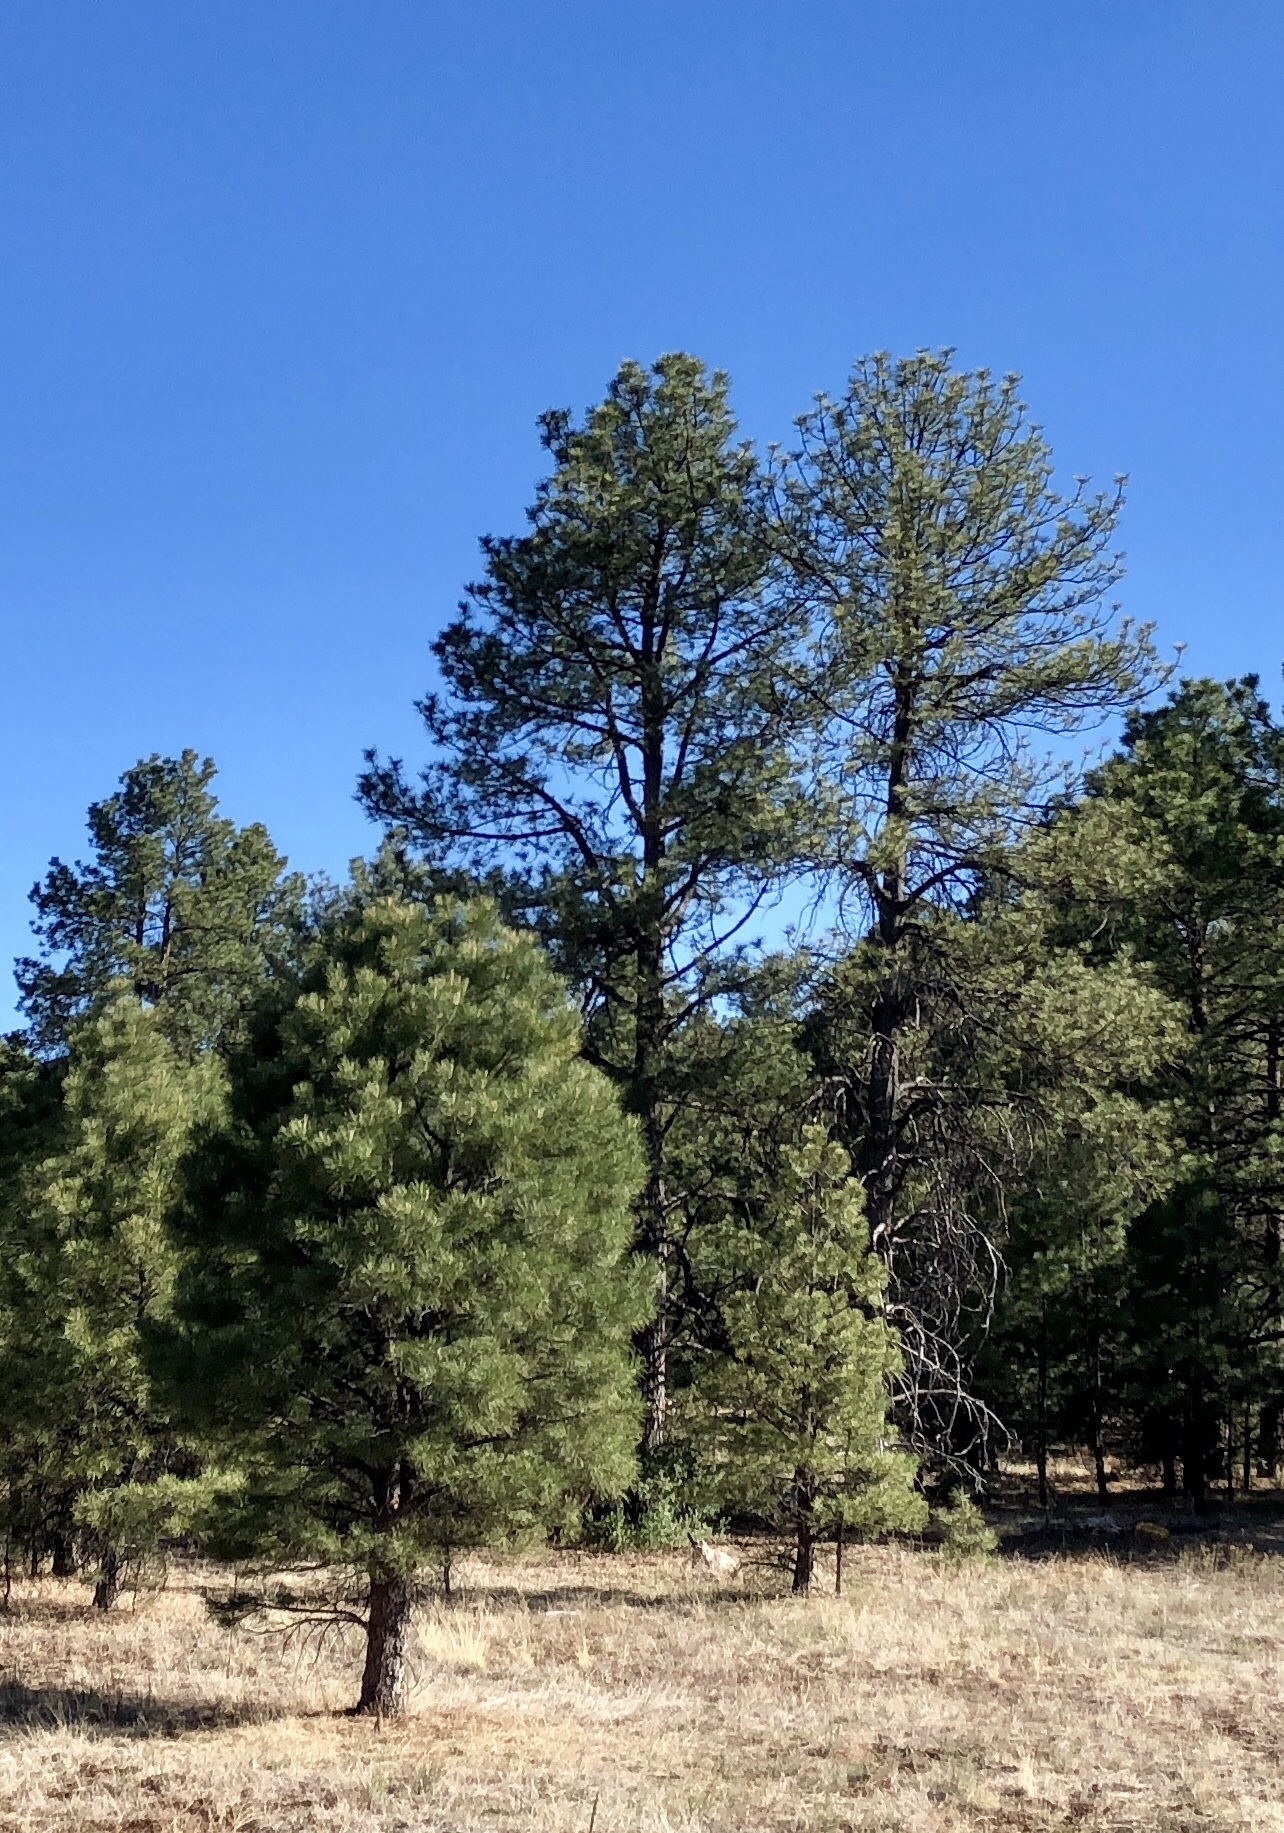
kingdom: Plantae
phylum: Tracheophyta
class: Pinopsida
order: Pinales
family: Pinaceae
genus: Pinus
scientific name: Pinus ponderosa
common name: Western yellow-pine
